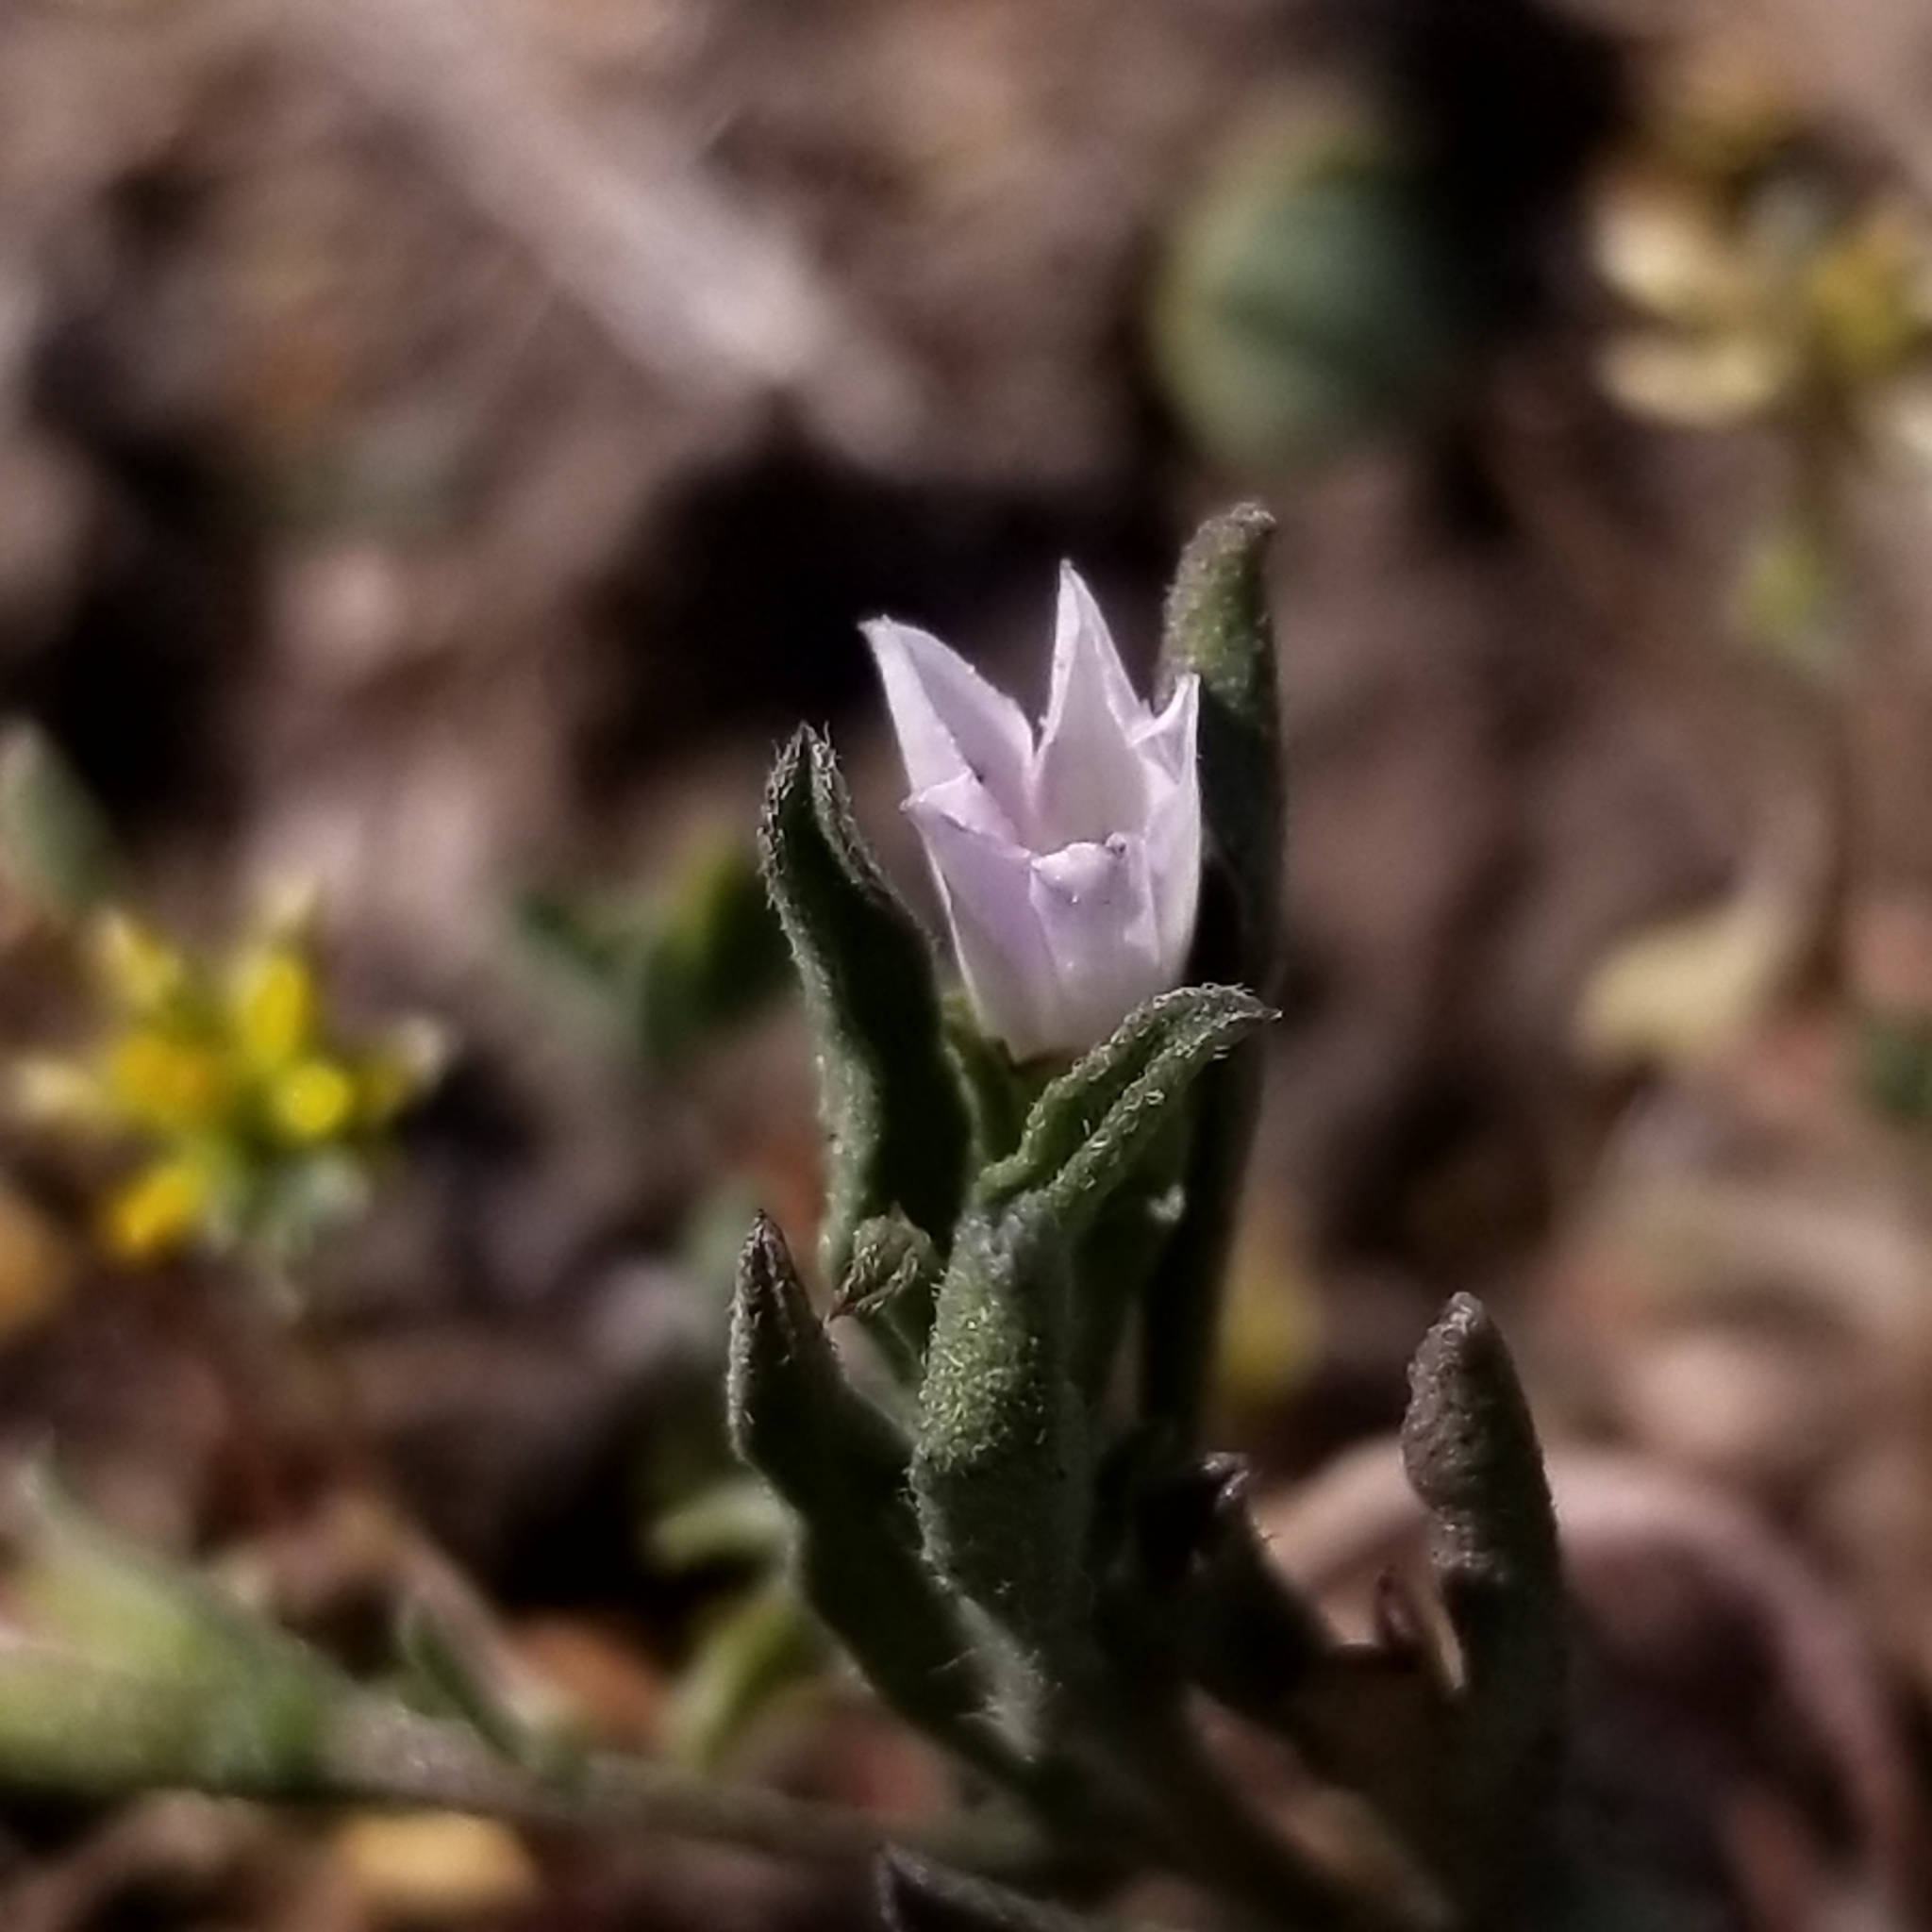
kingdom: Plantae
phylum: Tracheophyta
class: Magnoliopsida
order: Solanales
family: Convolvulaceae
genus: Convolvulus
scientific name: Convolvulus simulans
